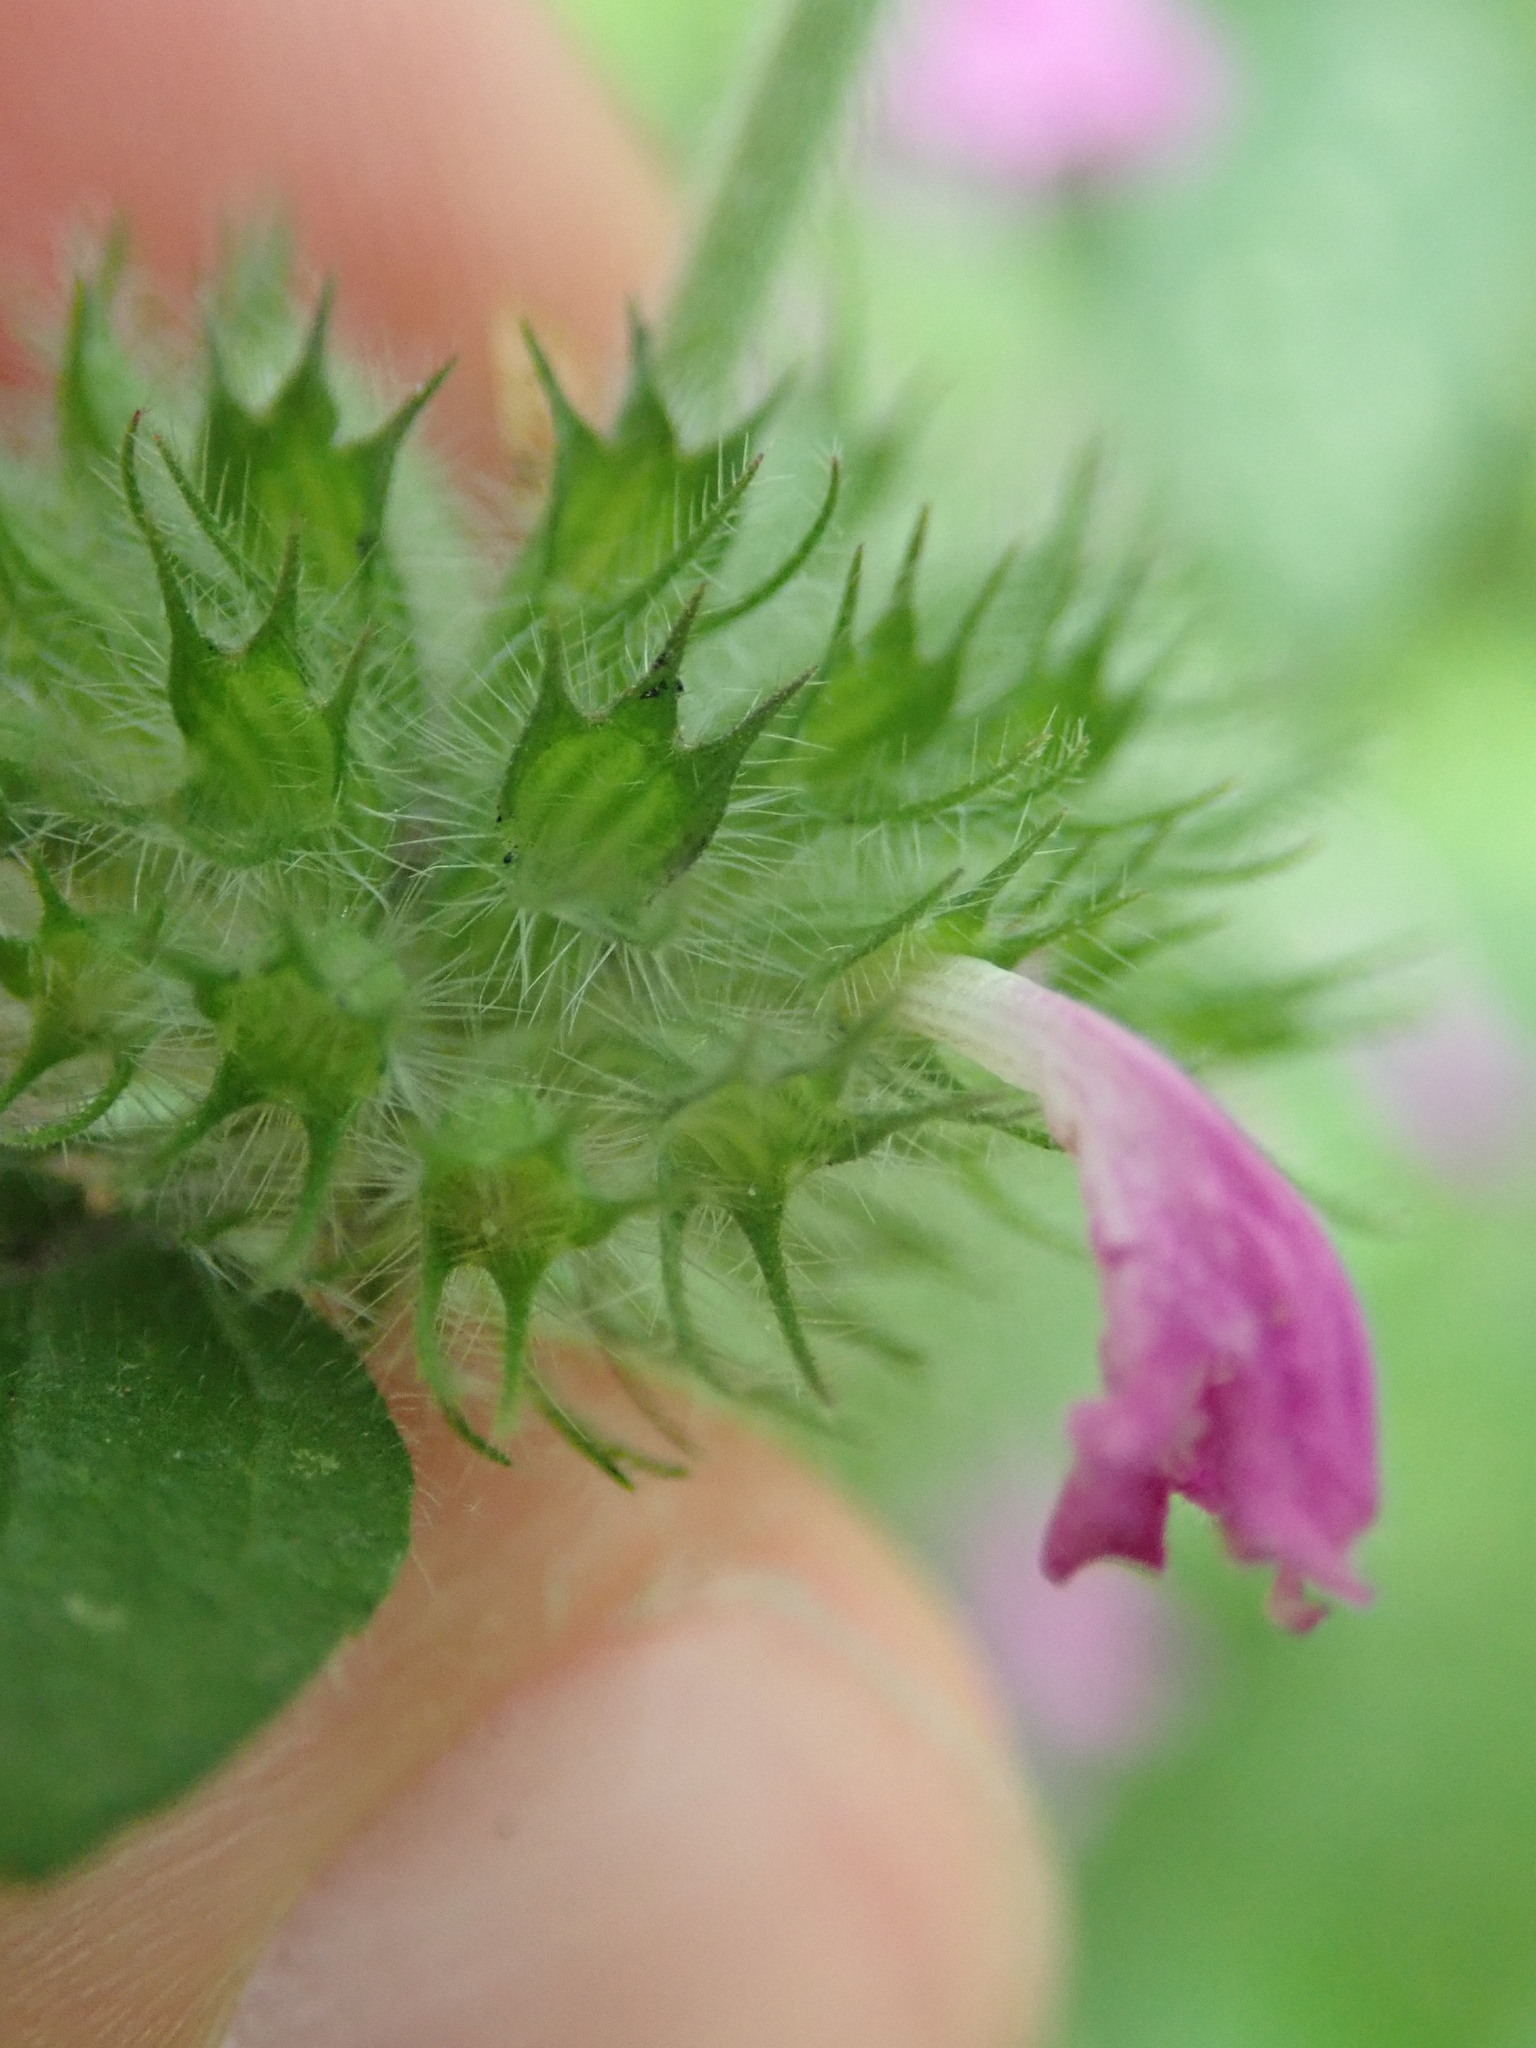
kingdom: Plantae
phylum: Tracheophyta
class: Magnoliopsida
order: Lamiales
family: Lamiaceae
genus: Clinopodium
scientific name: Clinopodium vulgare
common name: Wild basil
